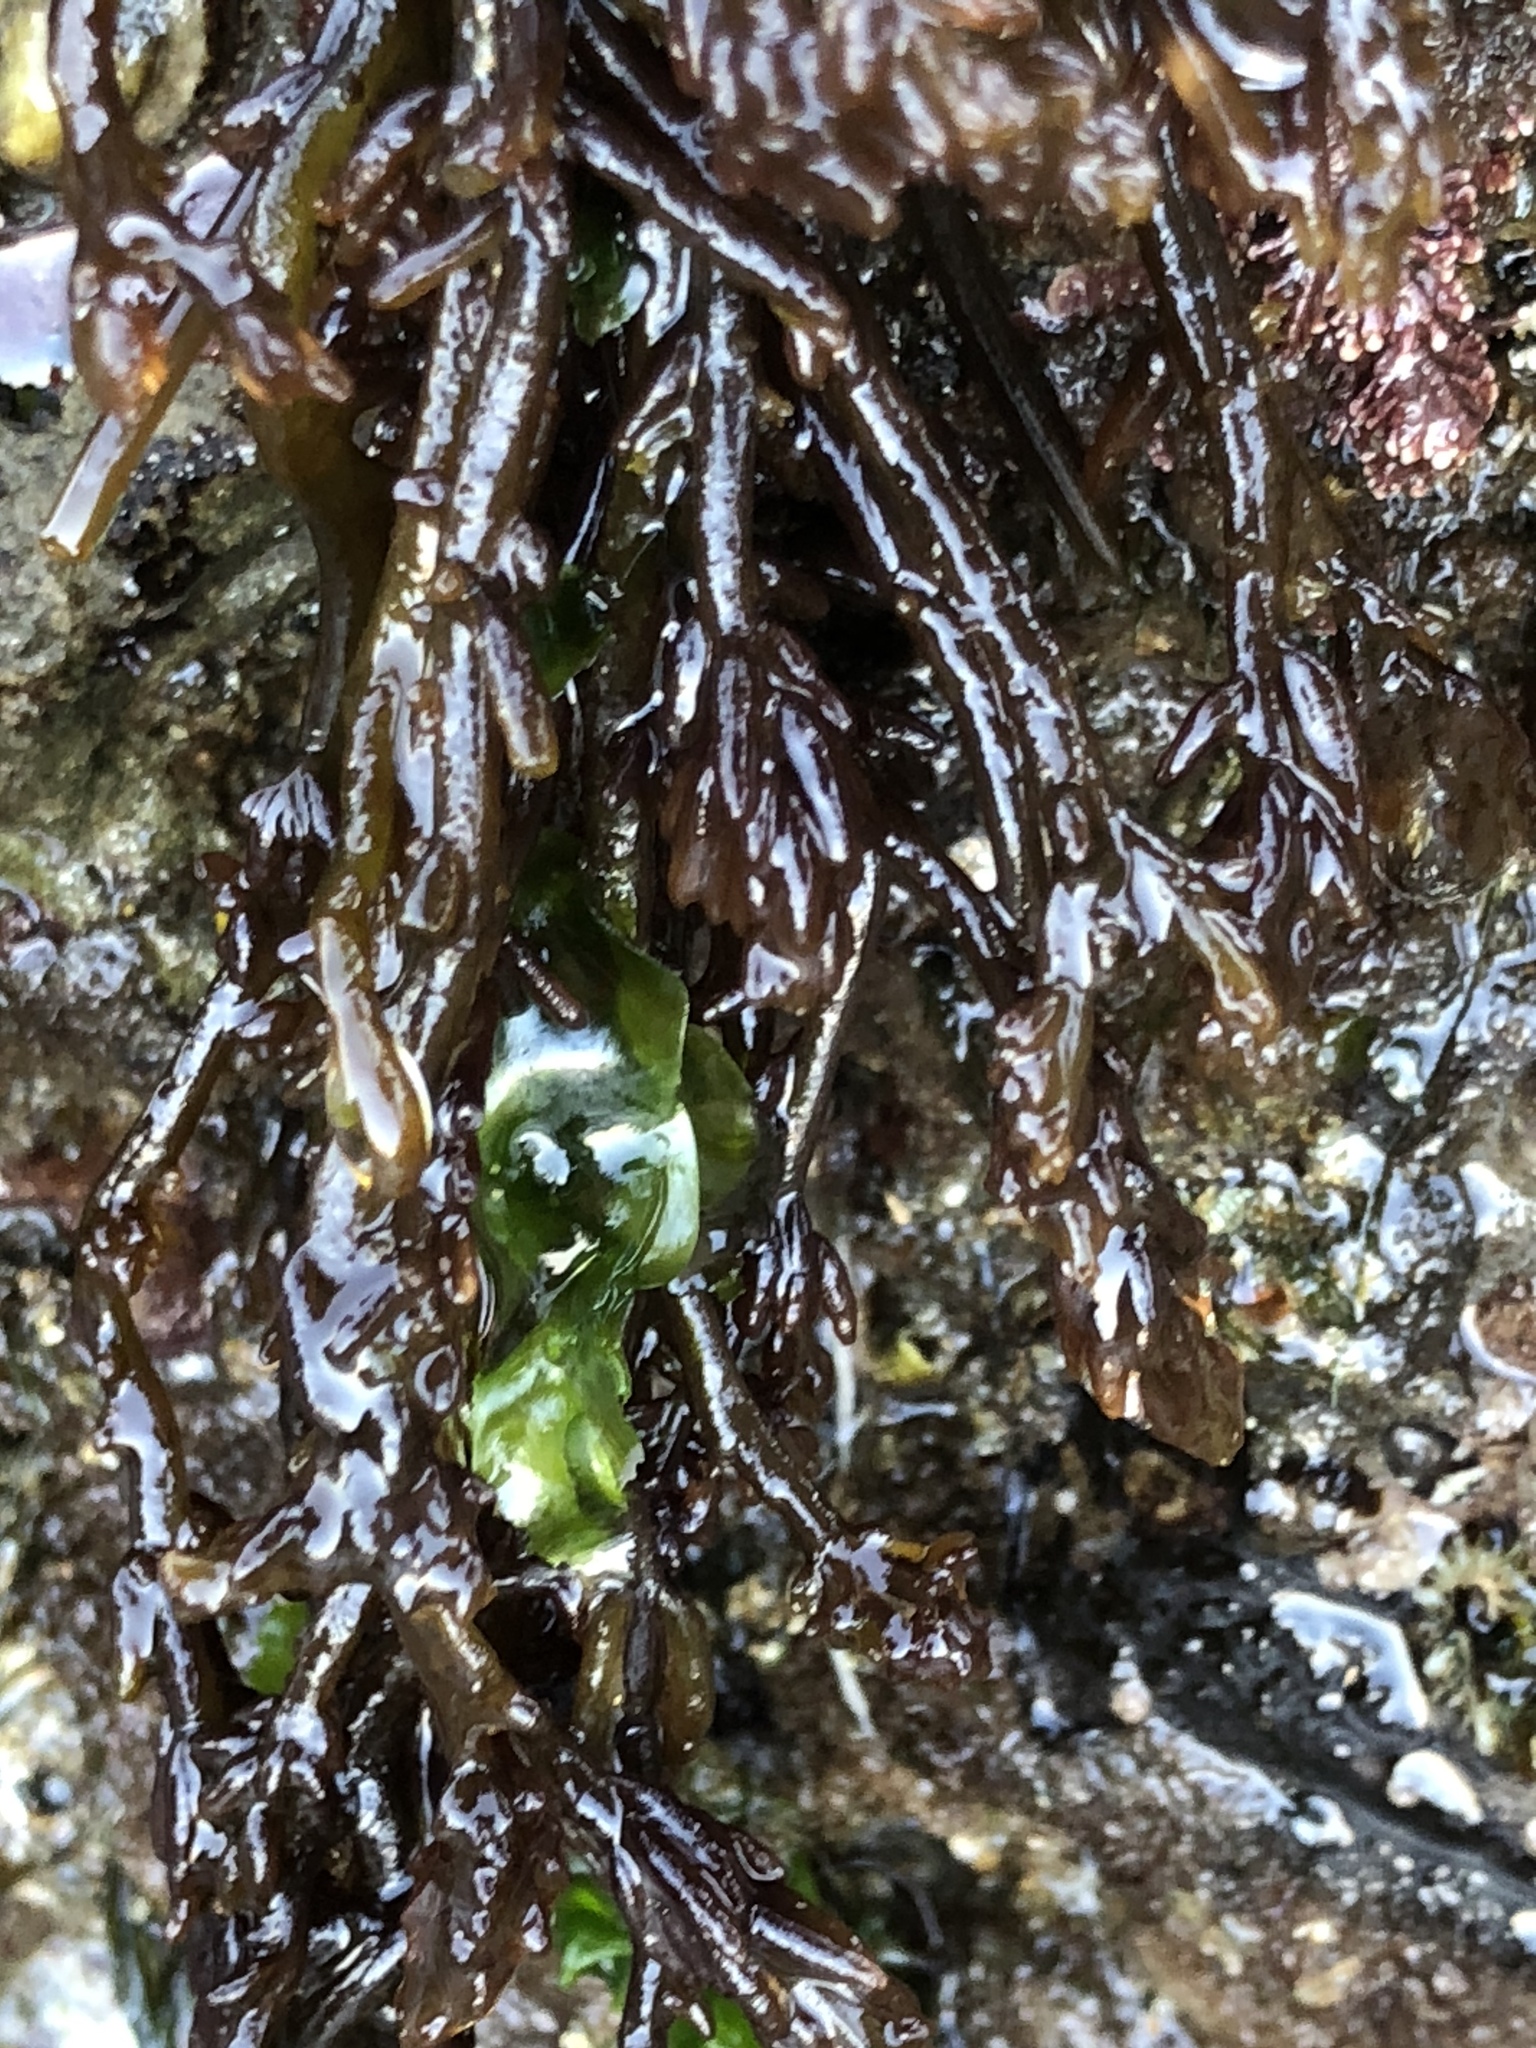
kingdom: Plantae
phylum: Rhodophyta
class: Florideophyceae
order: Rhodymeniales
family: Champiaceae
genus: Neogastroclonium
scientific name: Neogastroclonium subarticulatum
